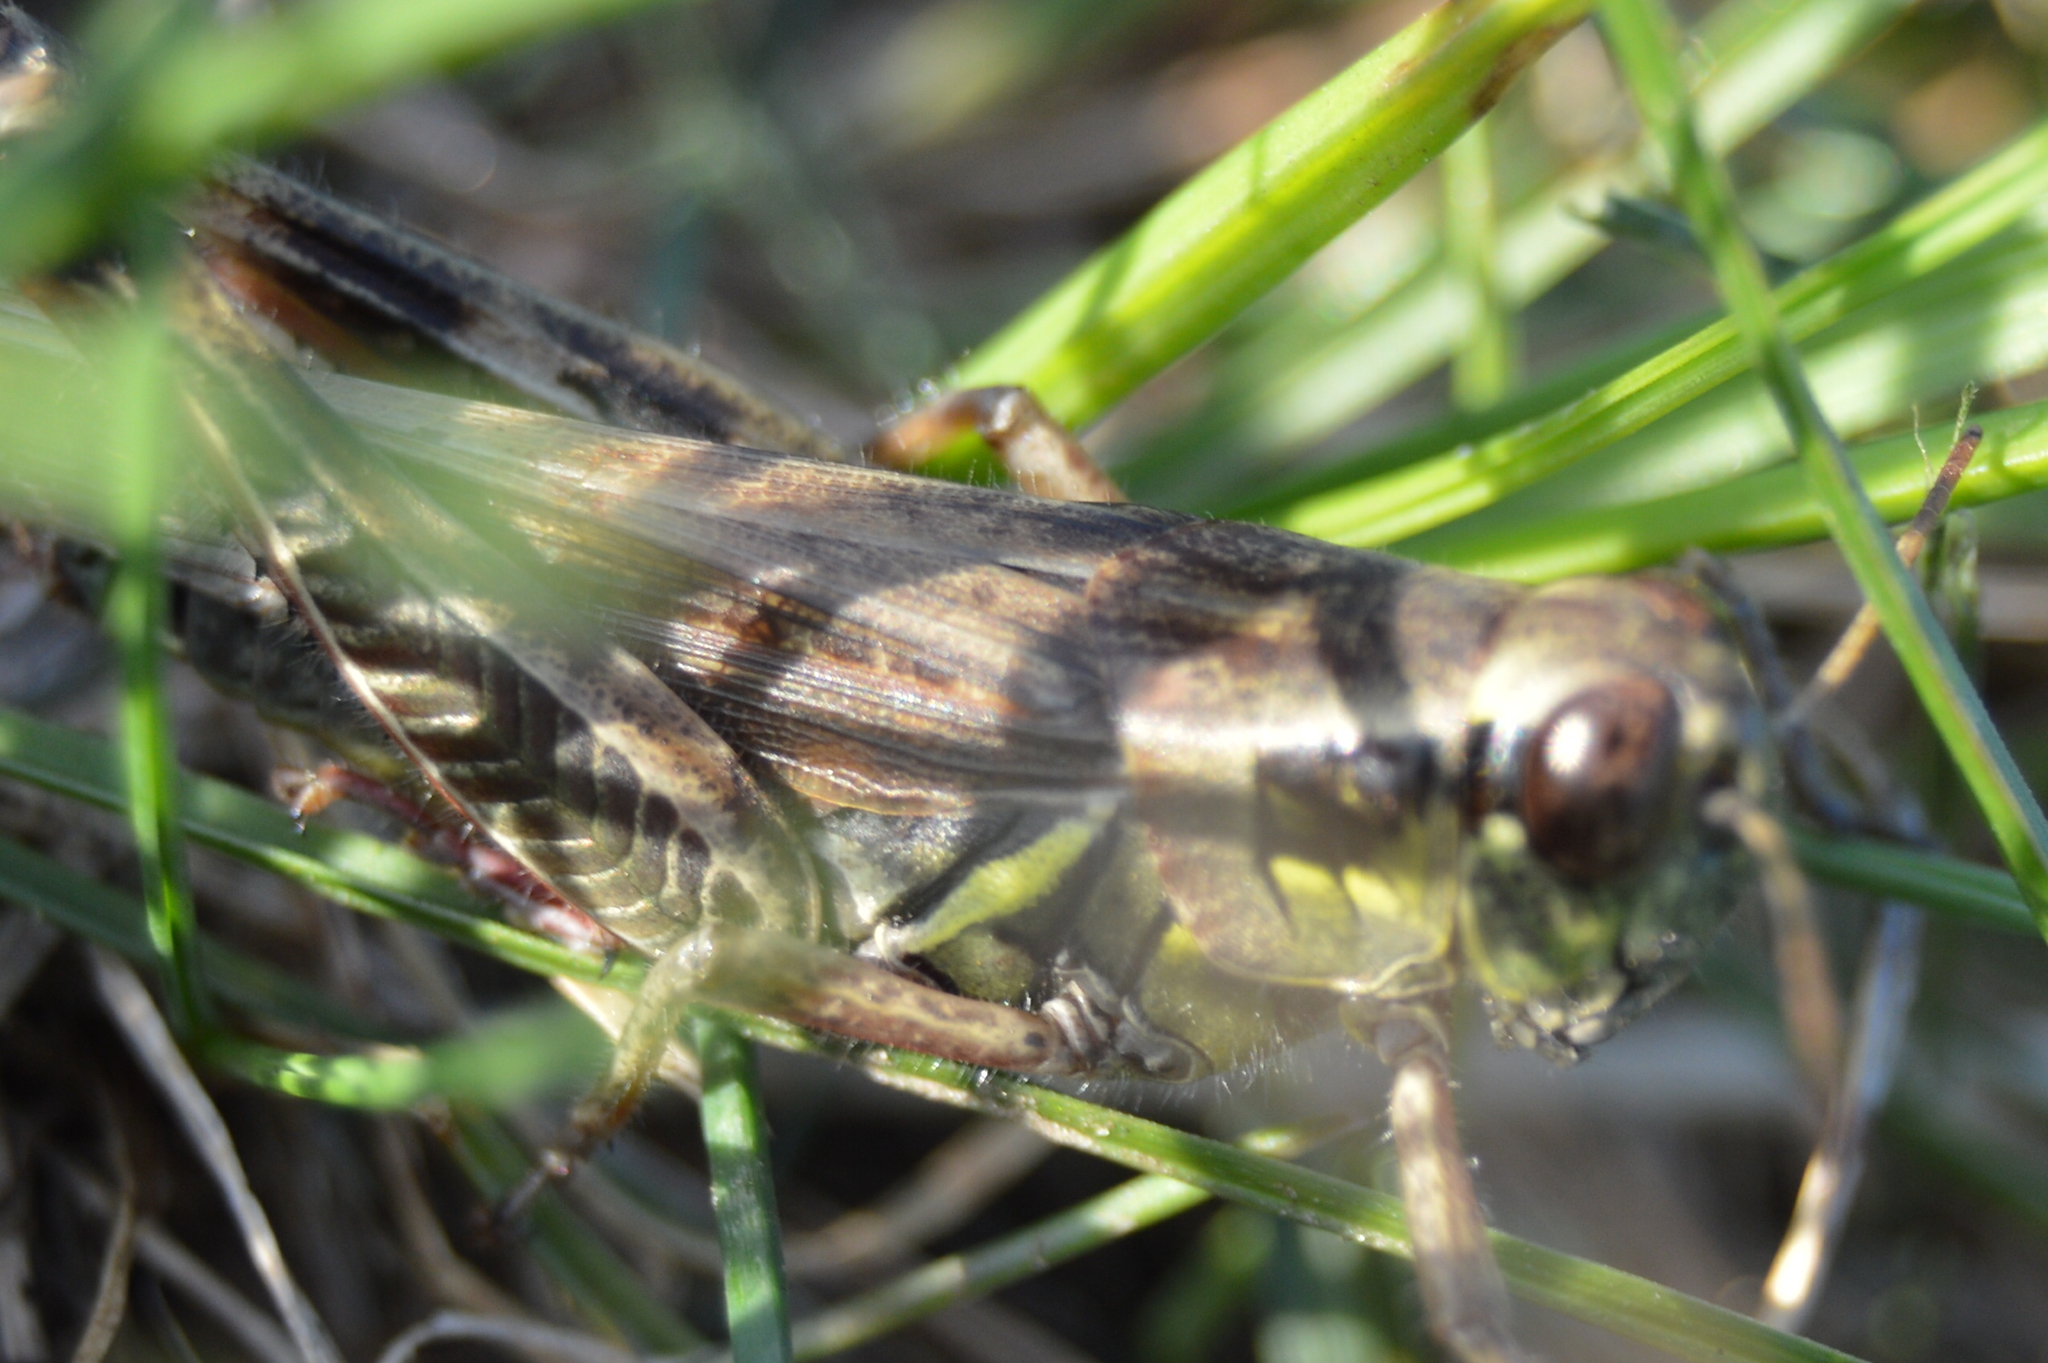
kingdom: Animalia
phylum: Arthropoda
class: Insecta
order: Orthoptera
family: Acrididae
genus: Melanoplus
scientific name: Melanoplus
